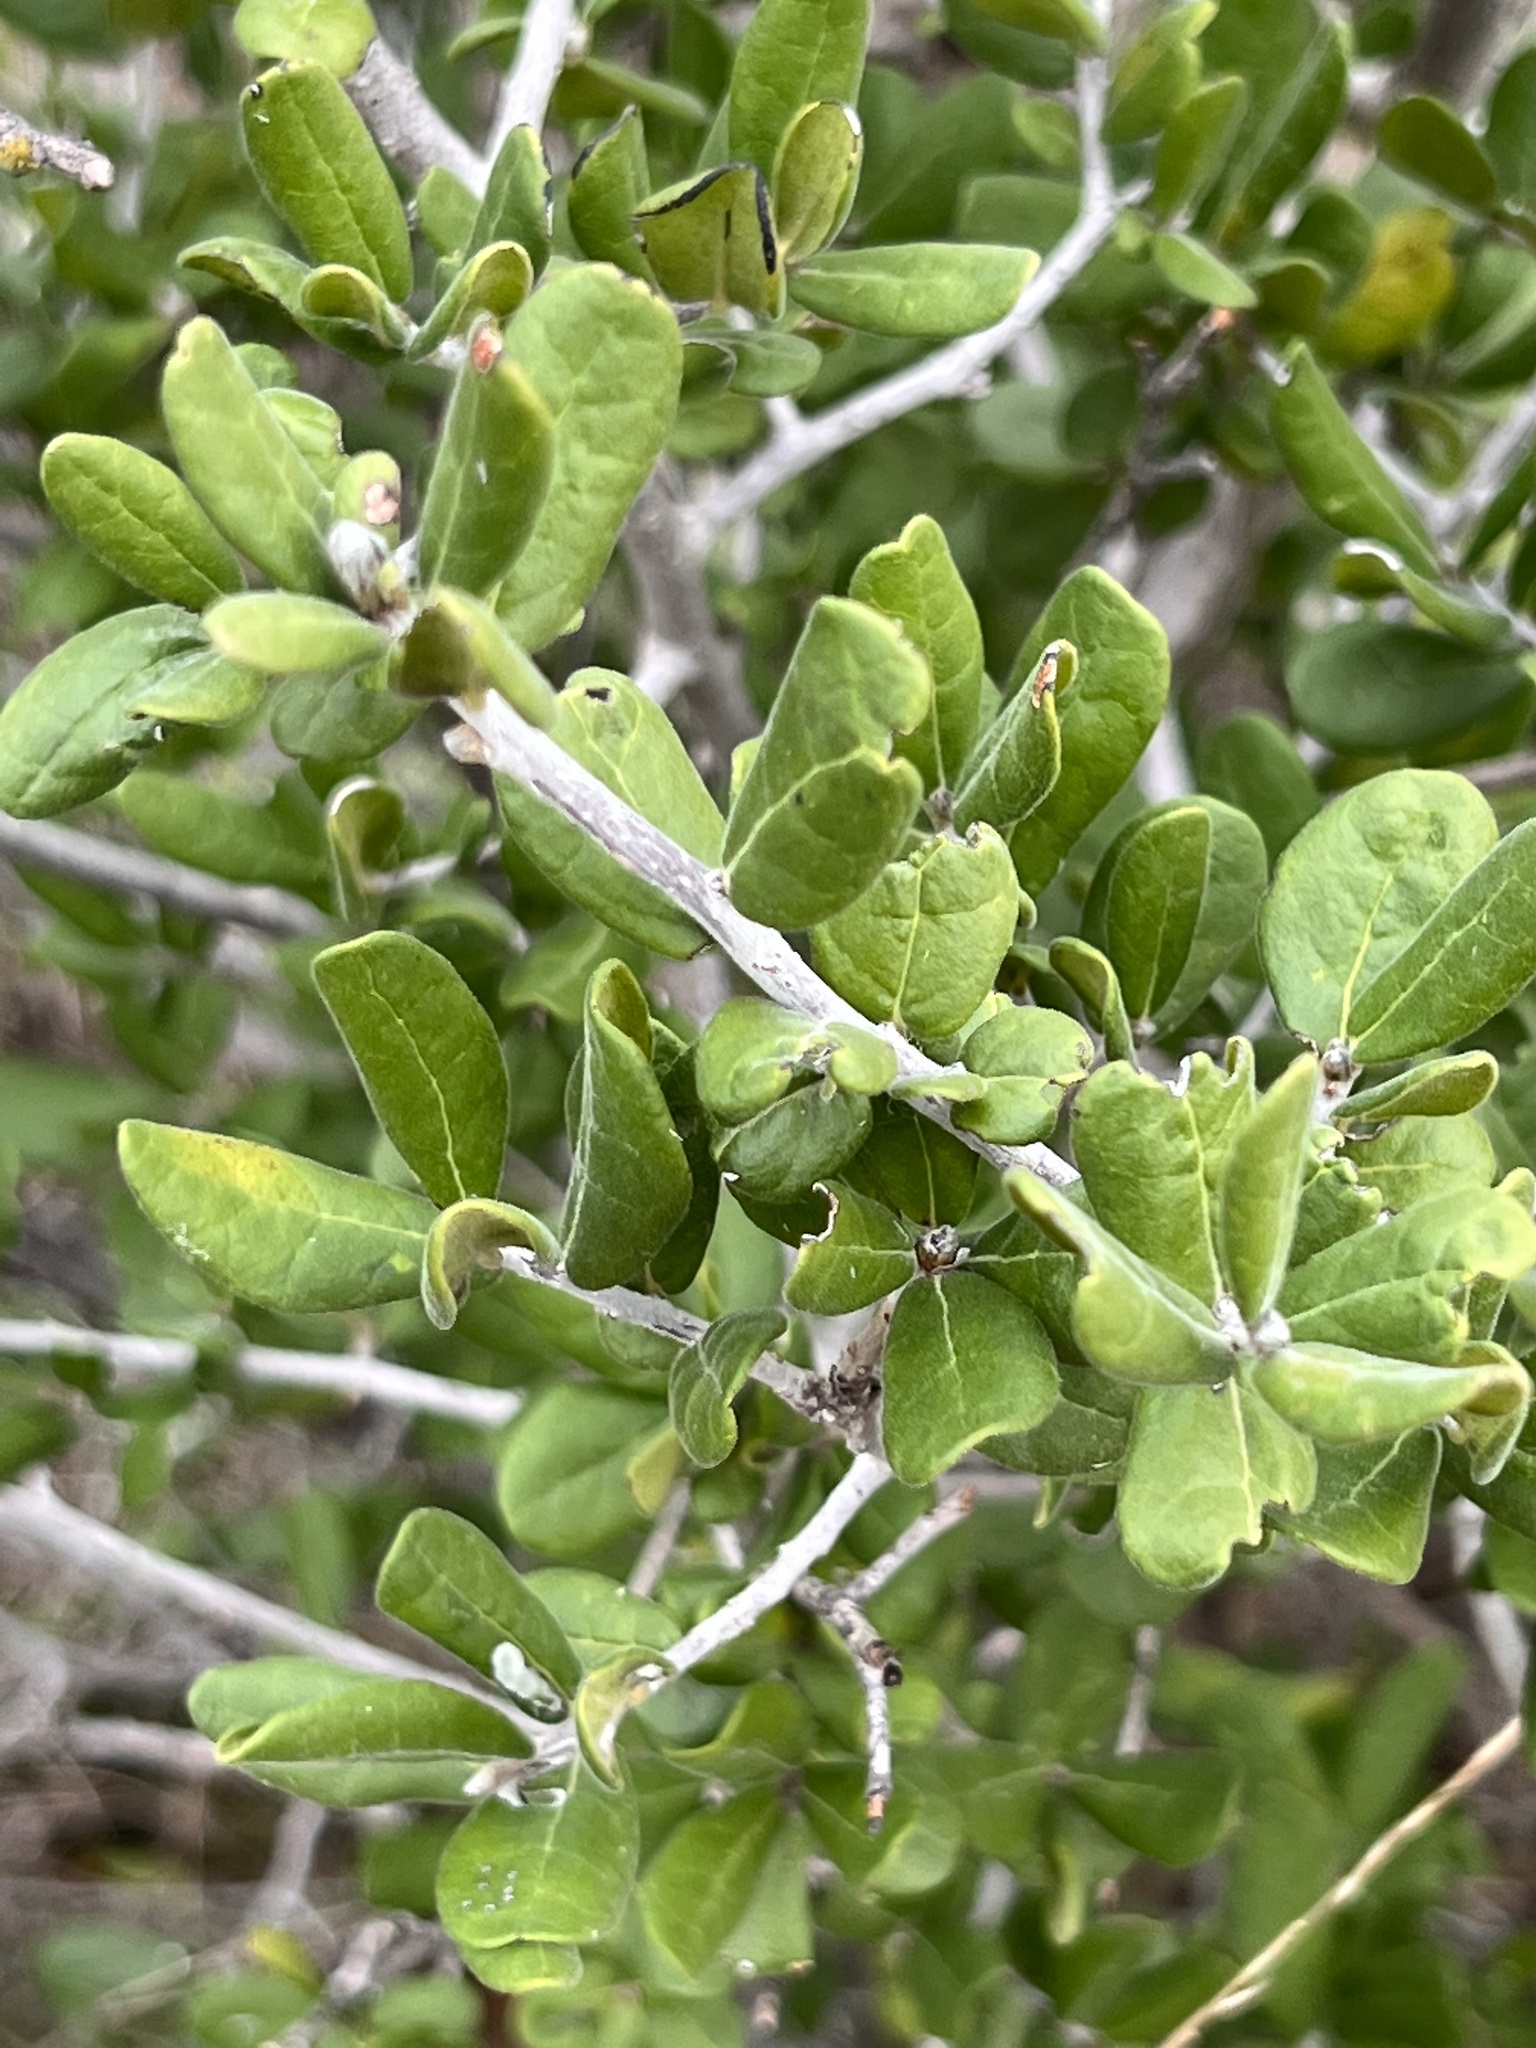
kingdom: Plantae
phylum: Tracheophyta
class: Magnoliopsida
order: Ericales
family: Ebenaceae
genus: Diospyros
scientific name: Diospyros texana
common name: Texas persimmon
